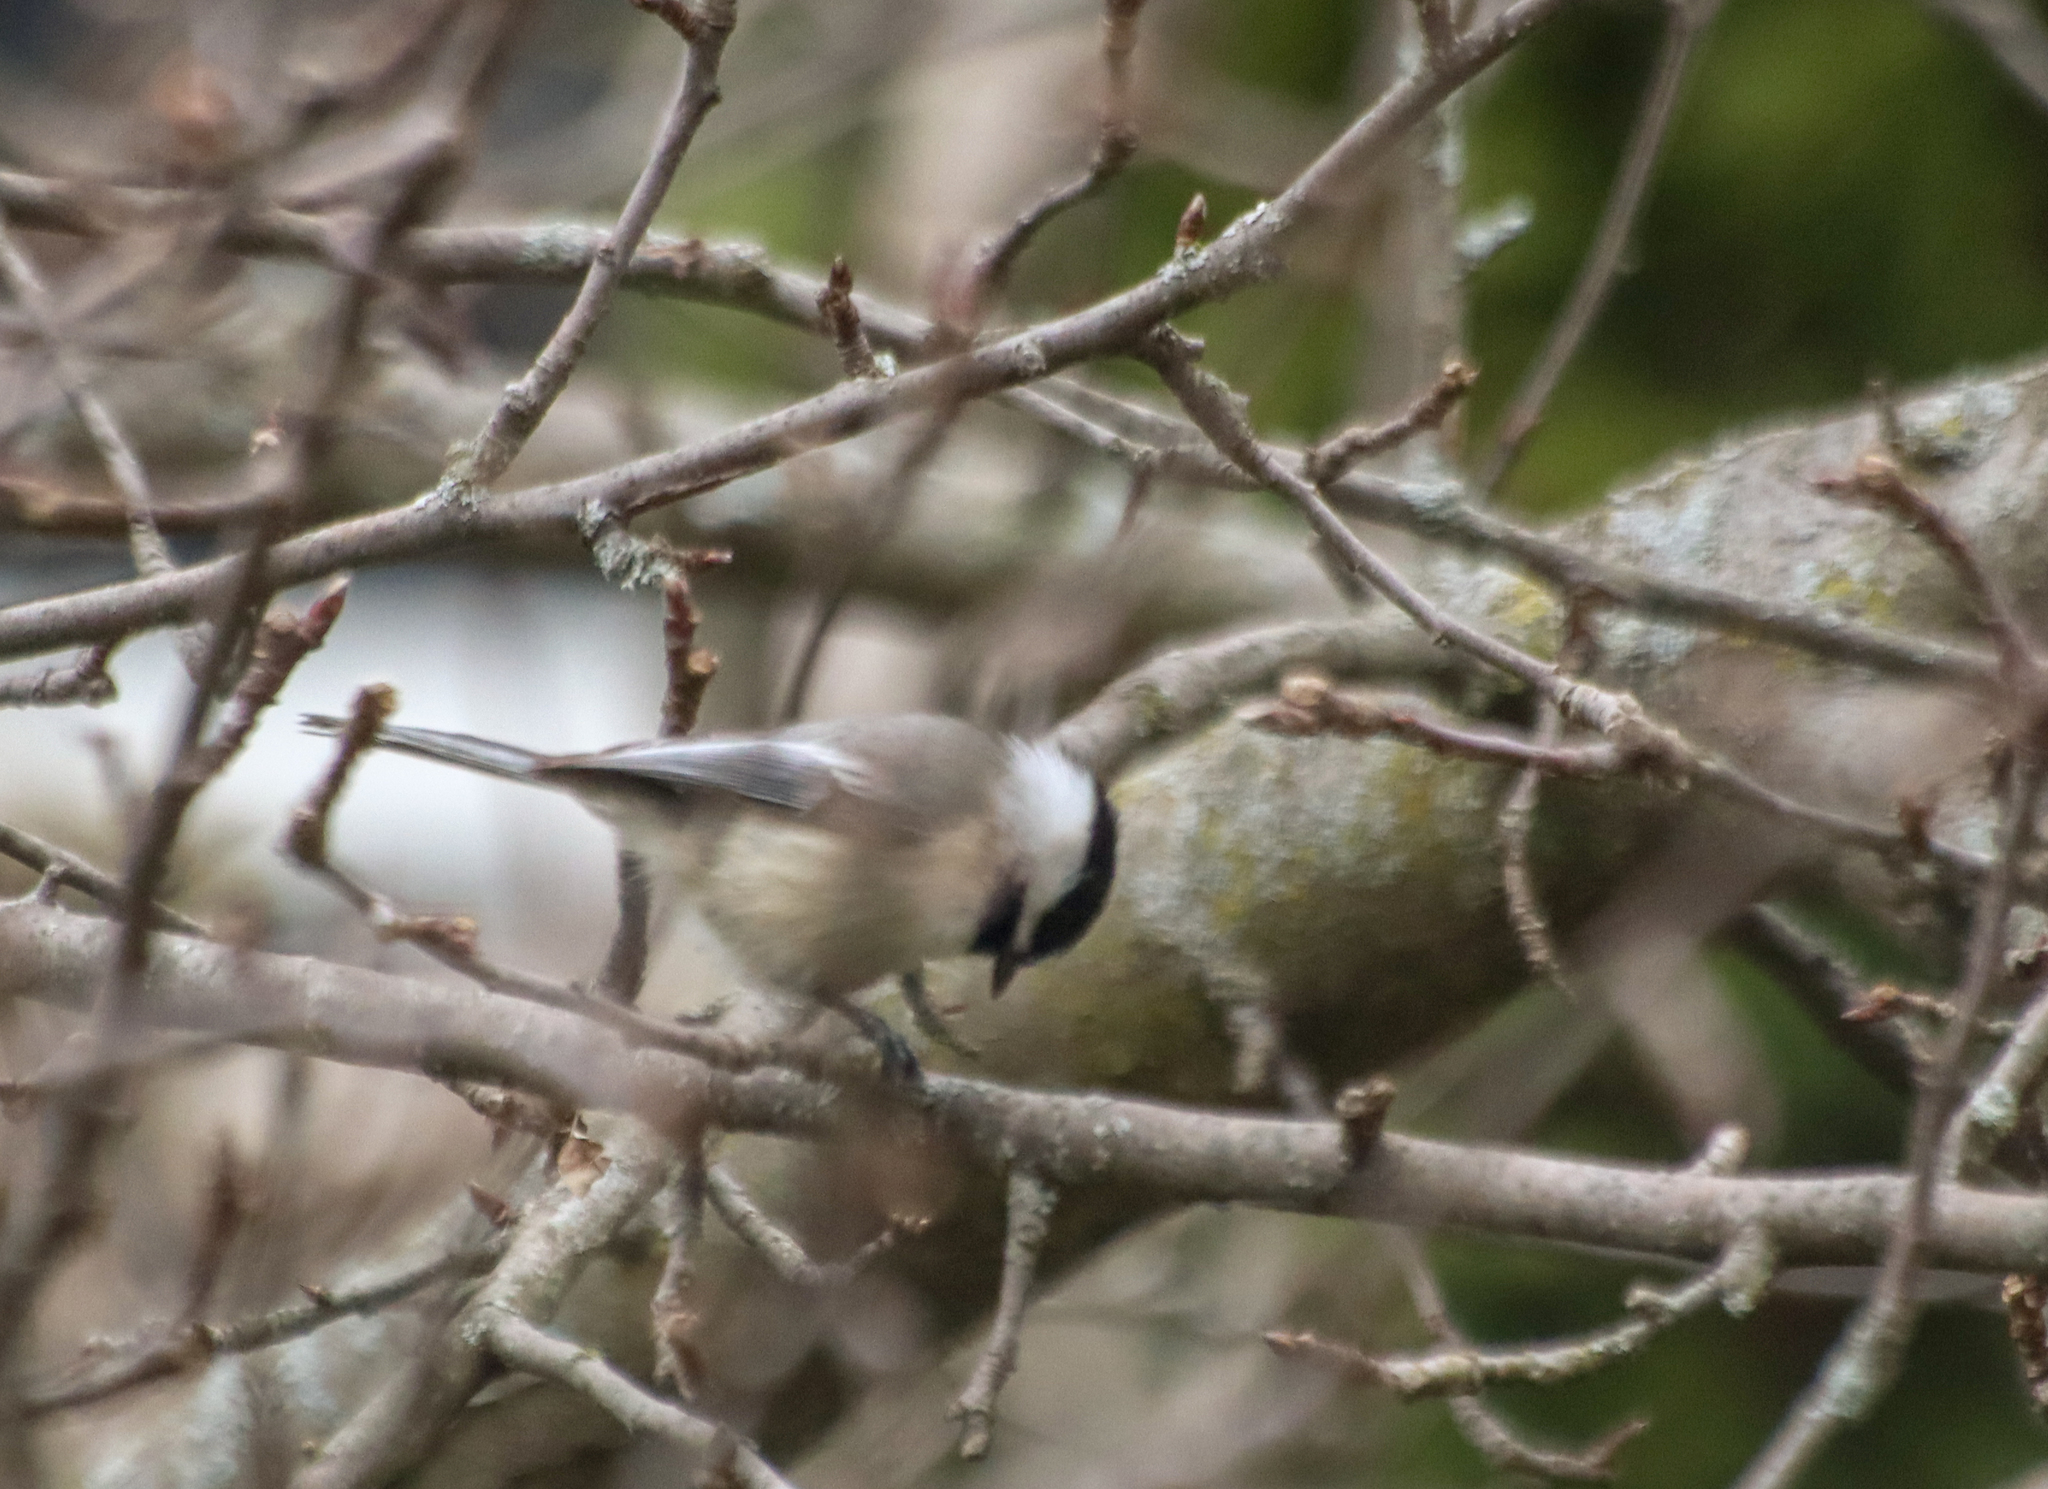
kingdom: Animalia
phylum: Chordata
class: Aves
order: Passeriformes
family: Paridae
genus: Poecile
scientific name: Poecile atricapillus
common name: Black-capped chickadee
